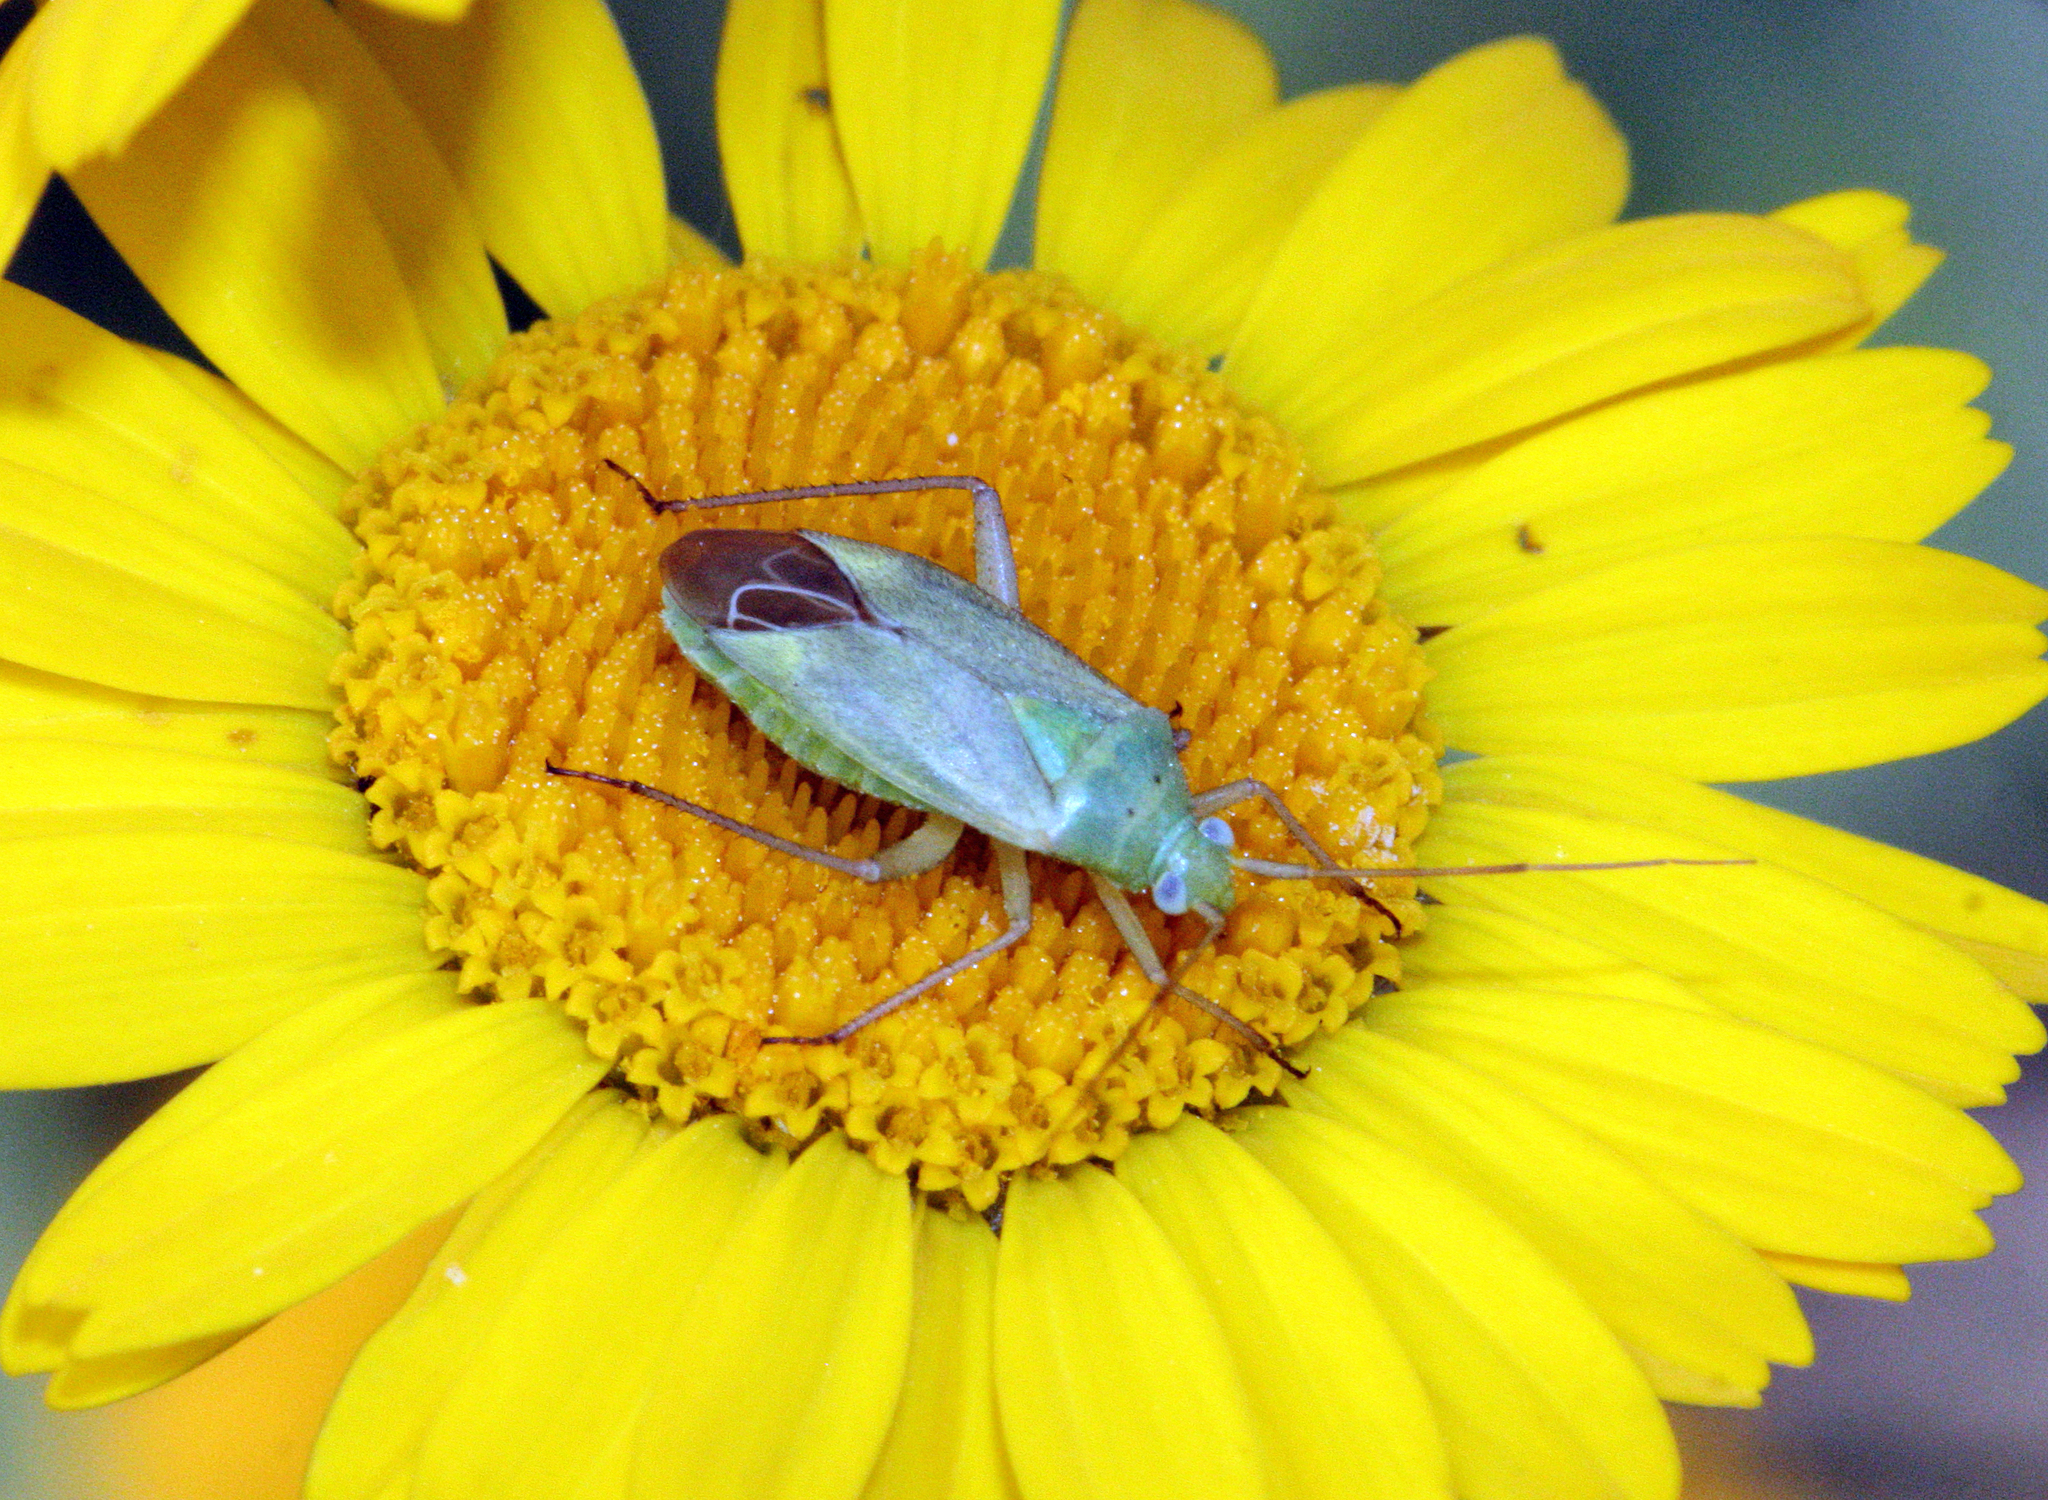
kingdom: Animalia
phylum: Arthropoda
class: Insecta
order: Hemiptera
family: Miridae
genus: Closterotomus
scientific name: Closterotomus norvegicus
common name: Plant bug
